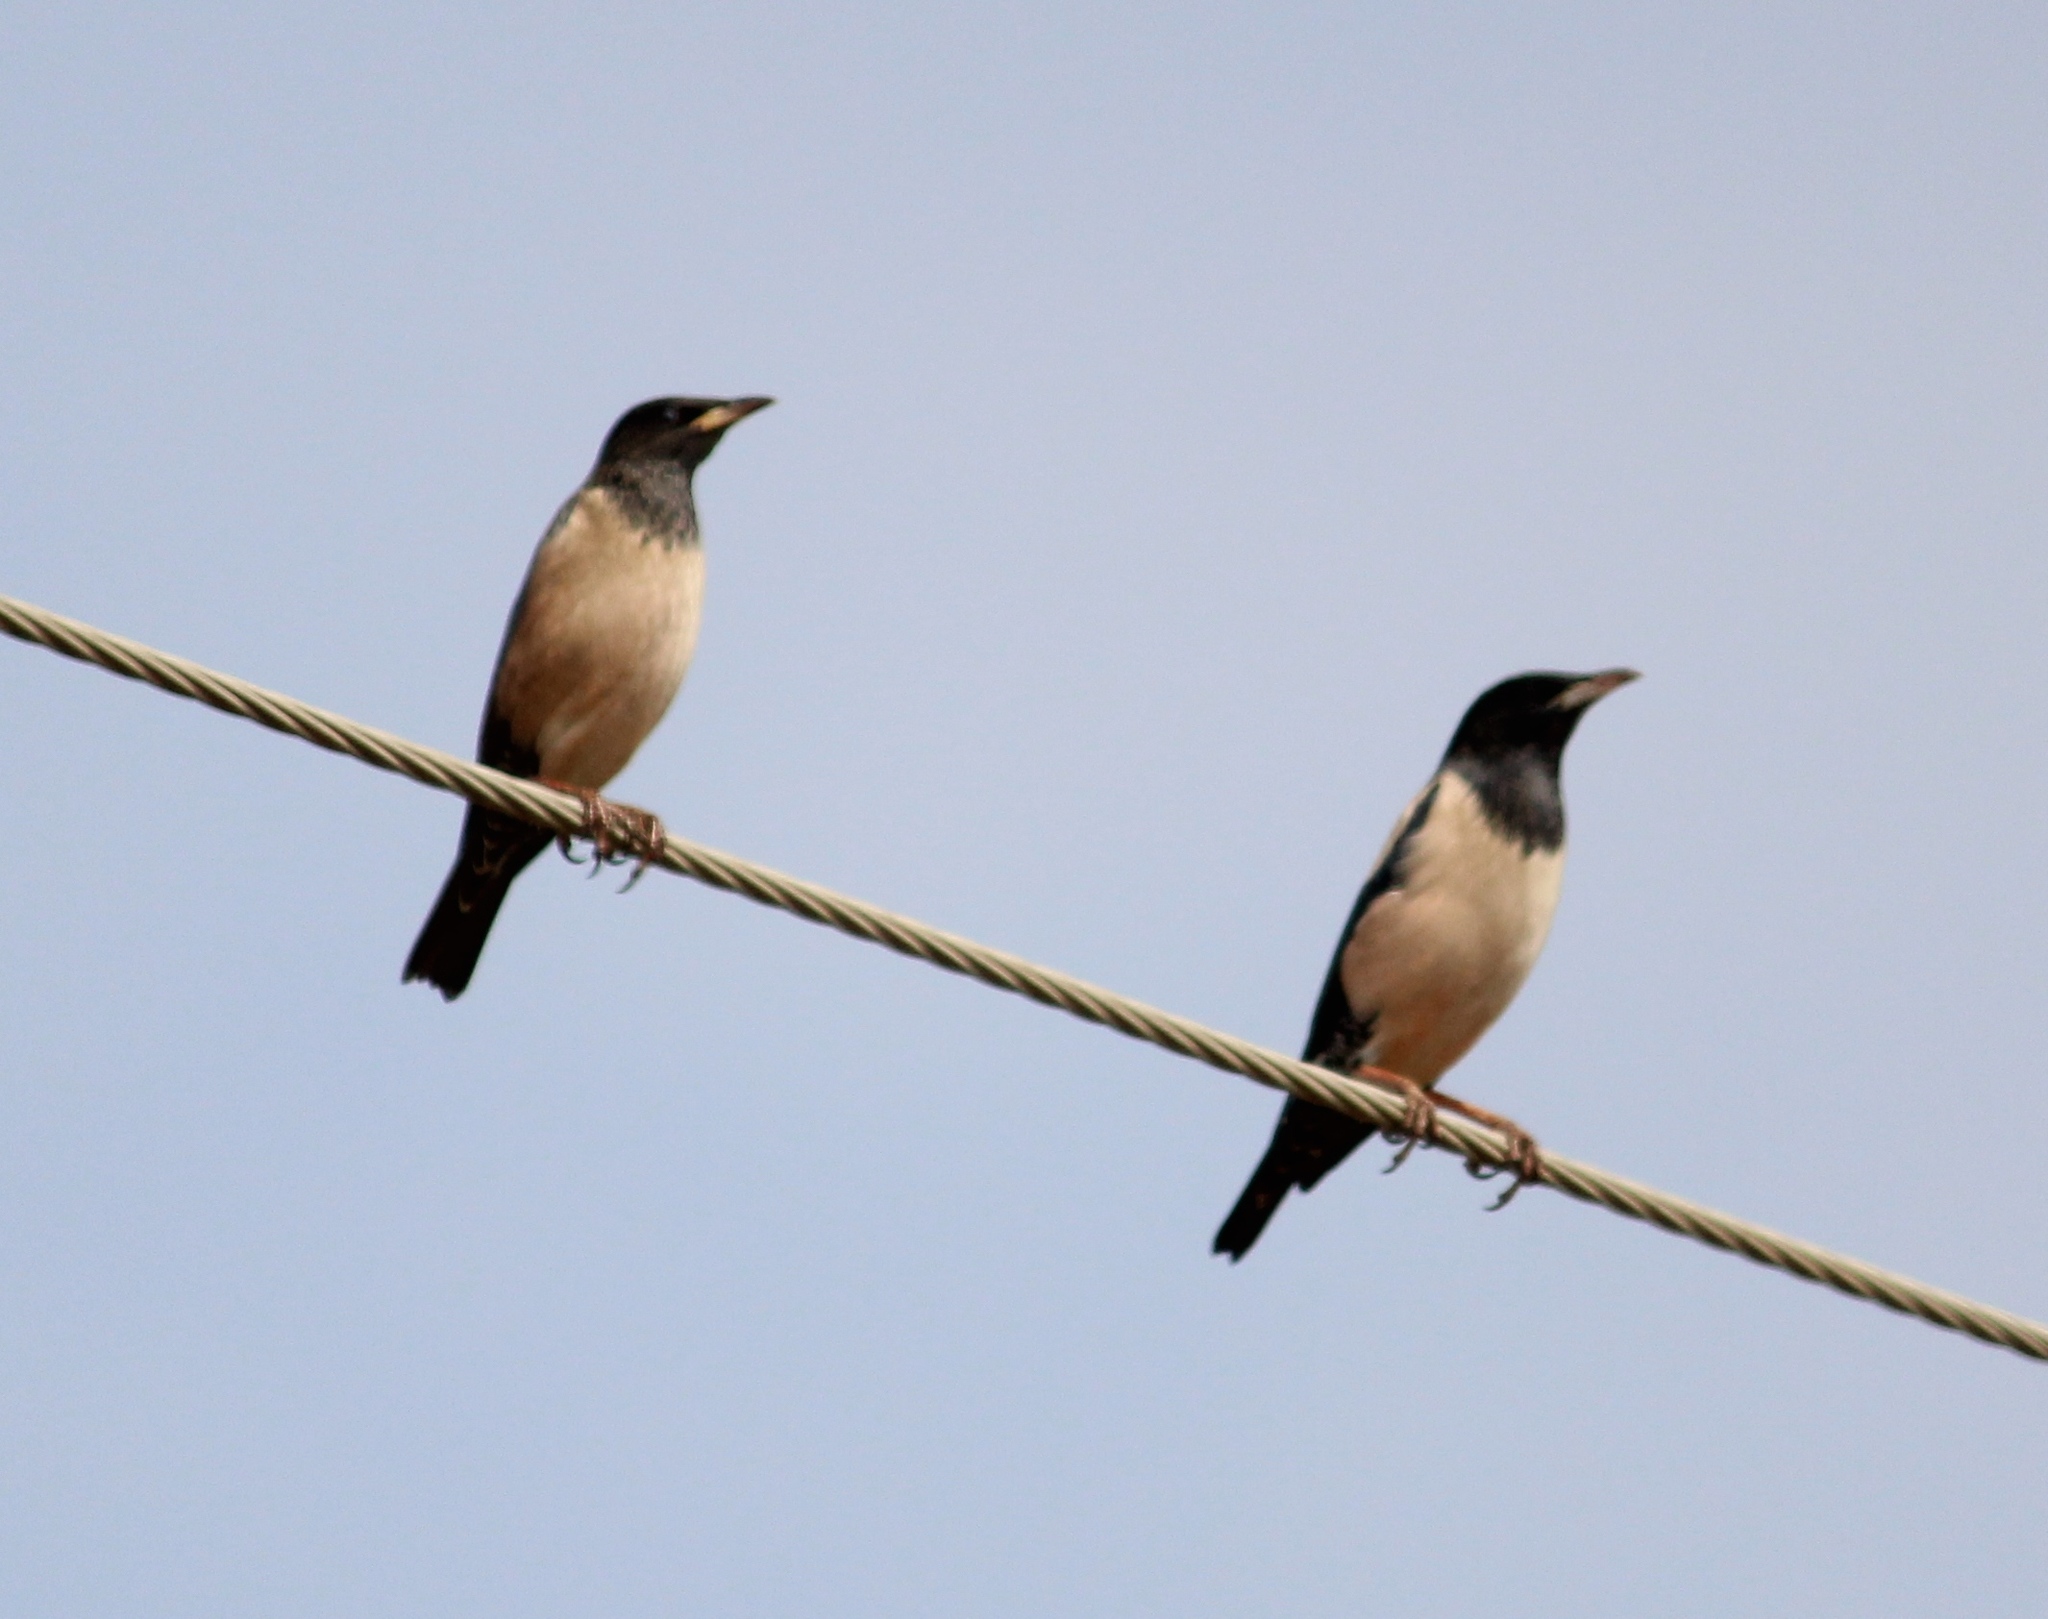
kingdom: Animalia
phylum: Chordata
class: Aves
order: Passeriformes
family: Sturnidae
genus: Pastor
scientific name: Pastor roseus
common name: Rosy starling
